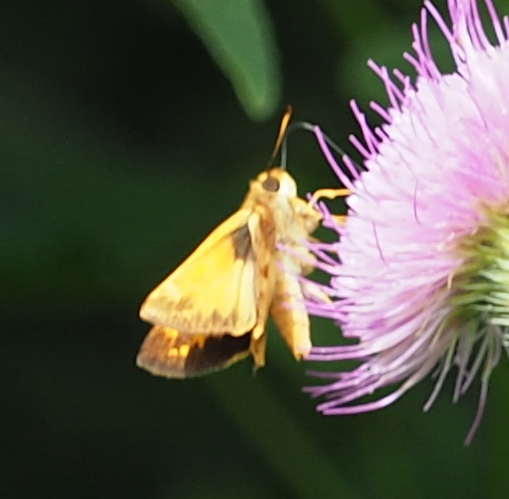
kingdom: Animalia
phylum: Arthropoda
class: Insecta
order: Lepidoptera
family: Hesperiidae
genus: Lon
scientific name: Lon zabulon
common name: Zabulon skipper
